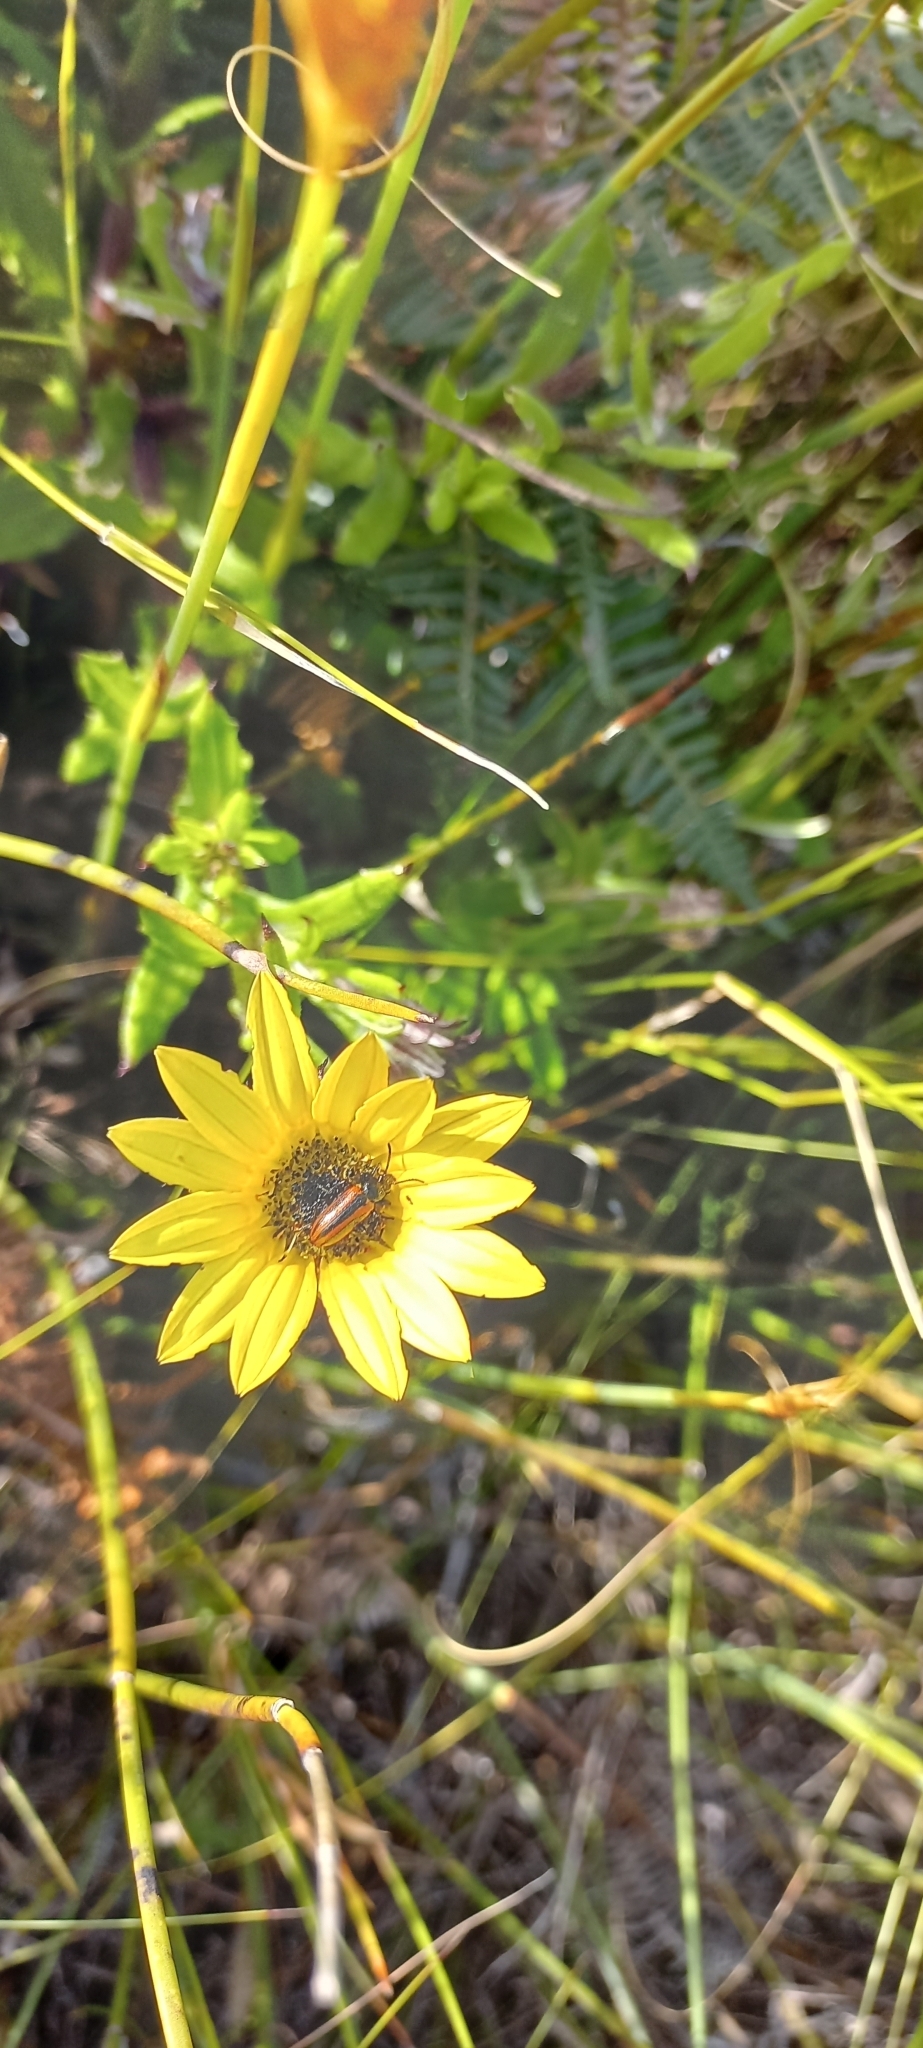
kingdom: Plantae
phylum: Tracheophyta
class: Magnoliopsida
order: Asterales
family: Asteraceae
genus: Arctotis
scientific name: Arctotis scabra
